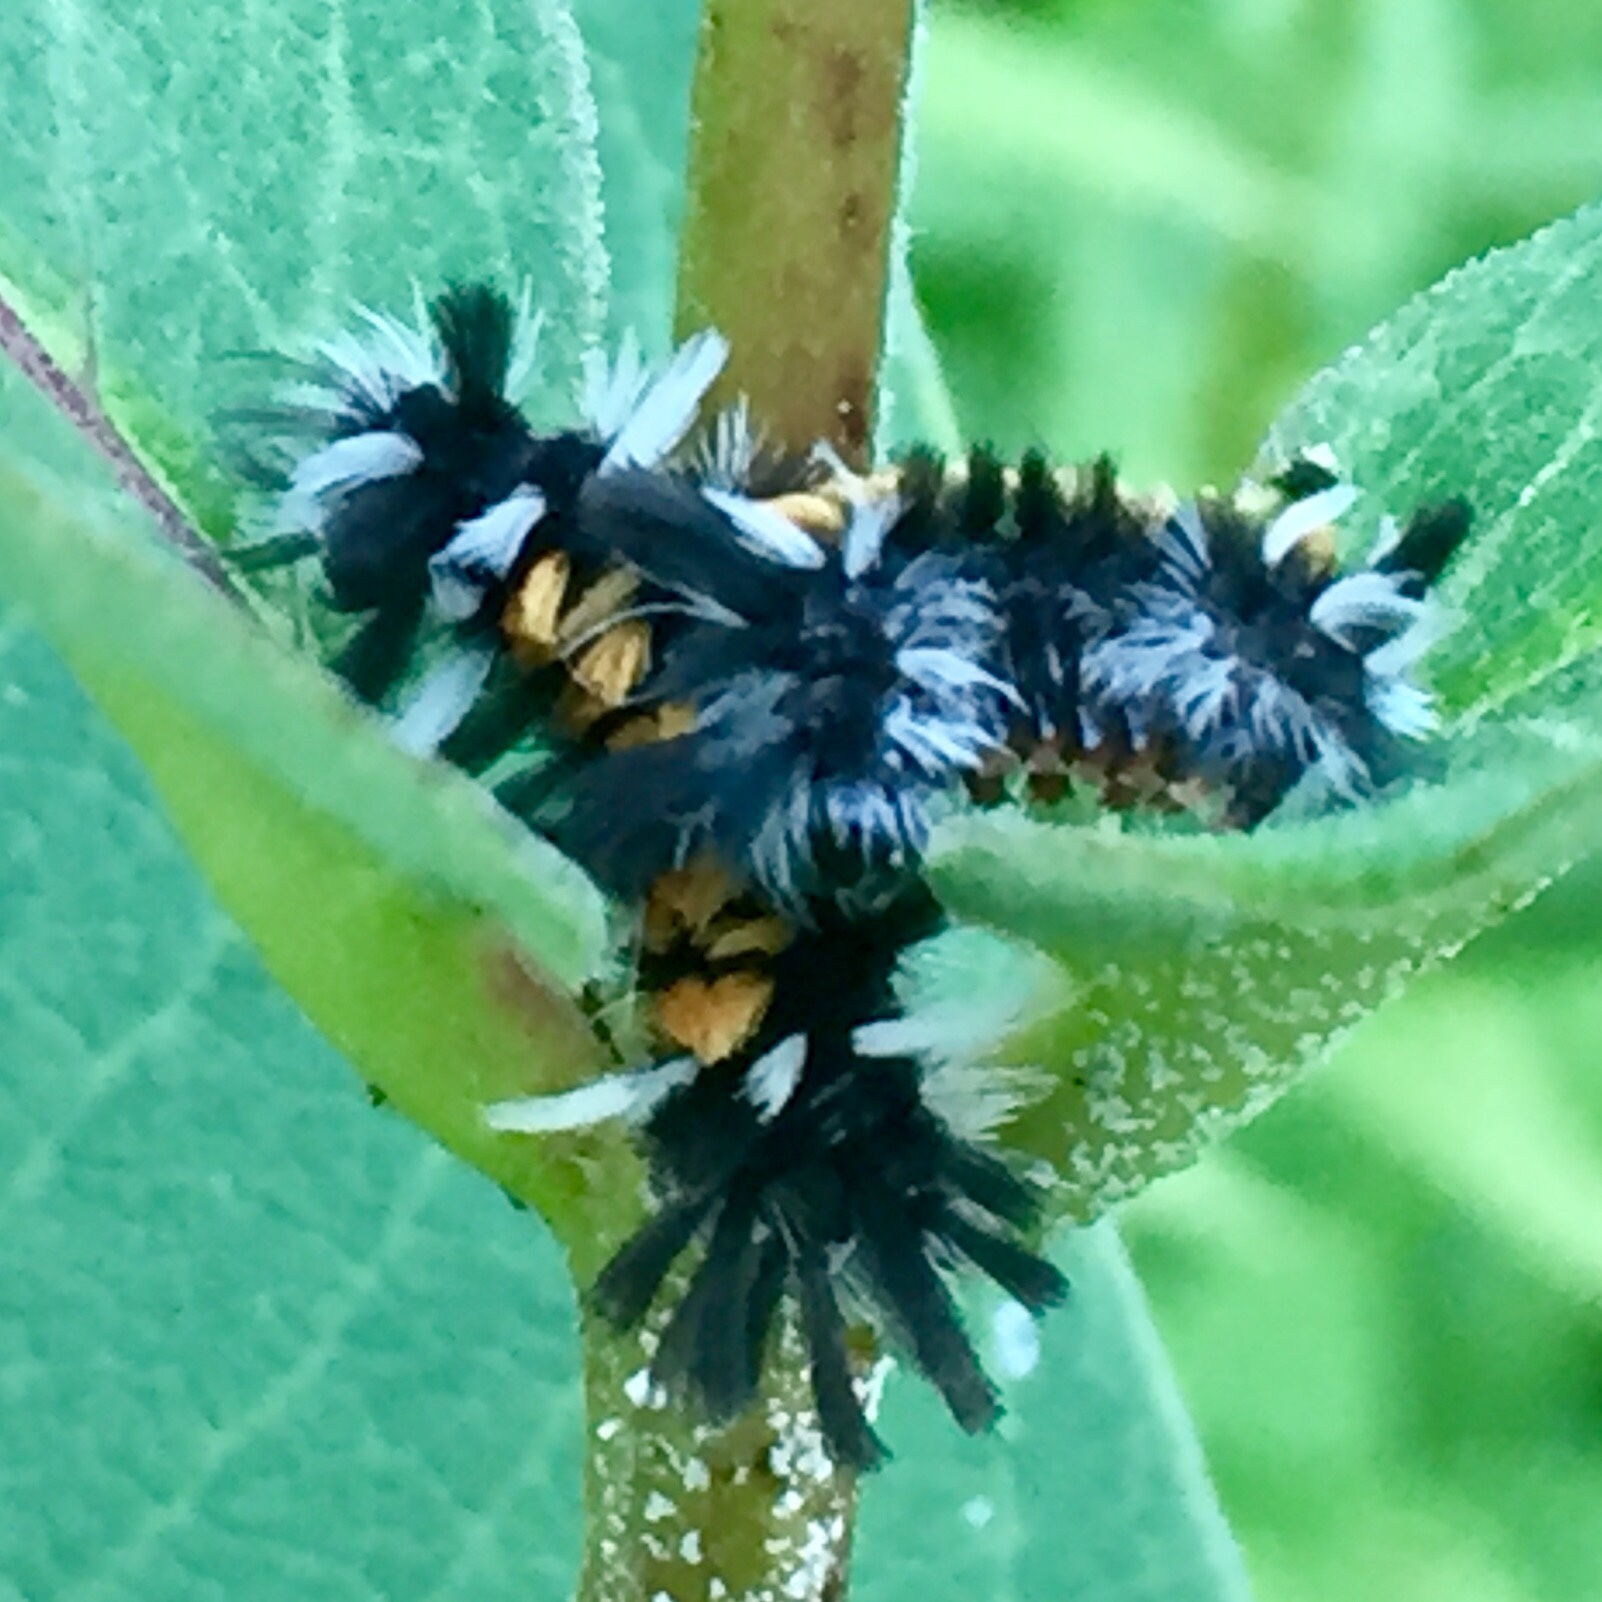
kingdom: Animalia
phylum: Arthropoda
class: Insecta
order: Lepidoptera
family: Erebidae
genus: Euchaetes
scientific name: Euchaetes egle
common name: Milkweed tussock moth
